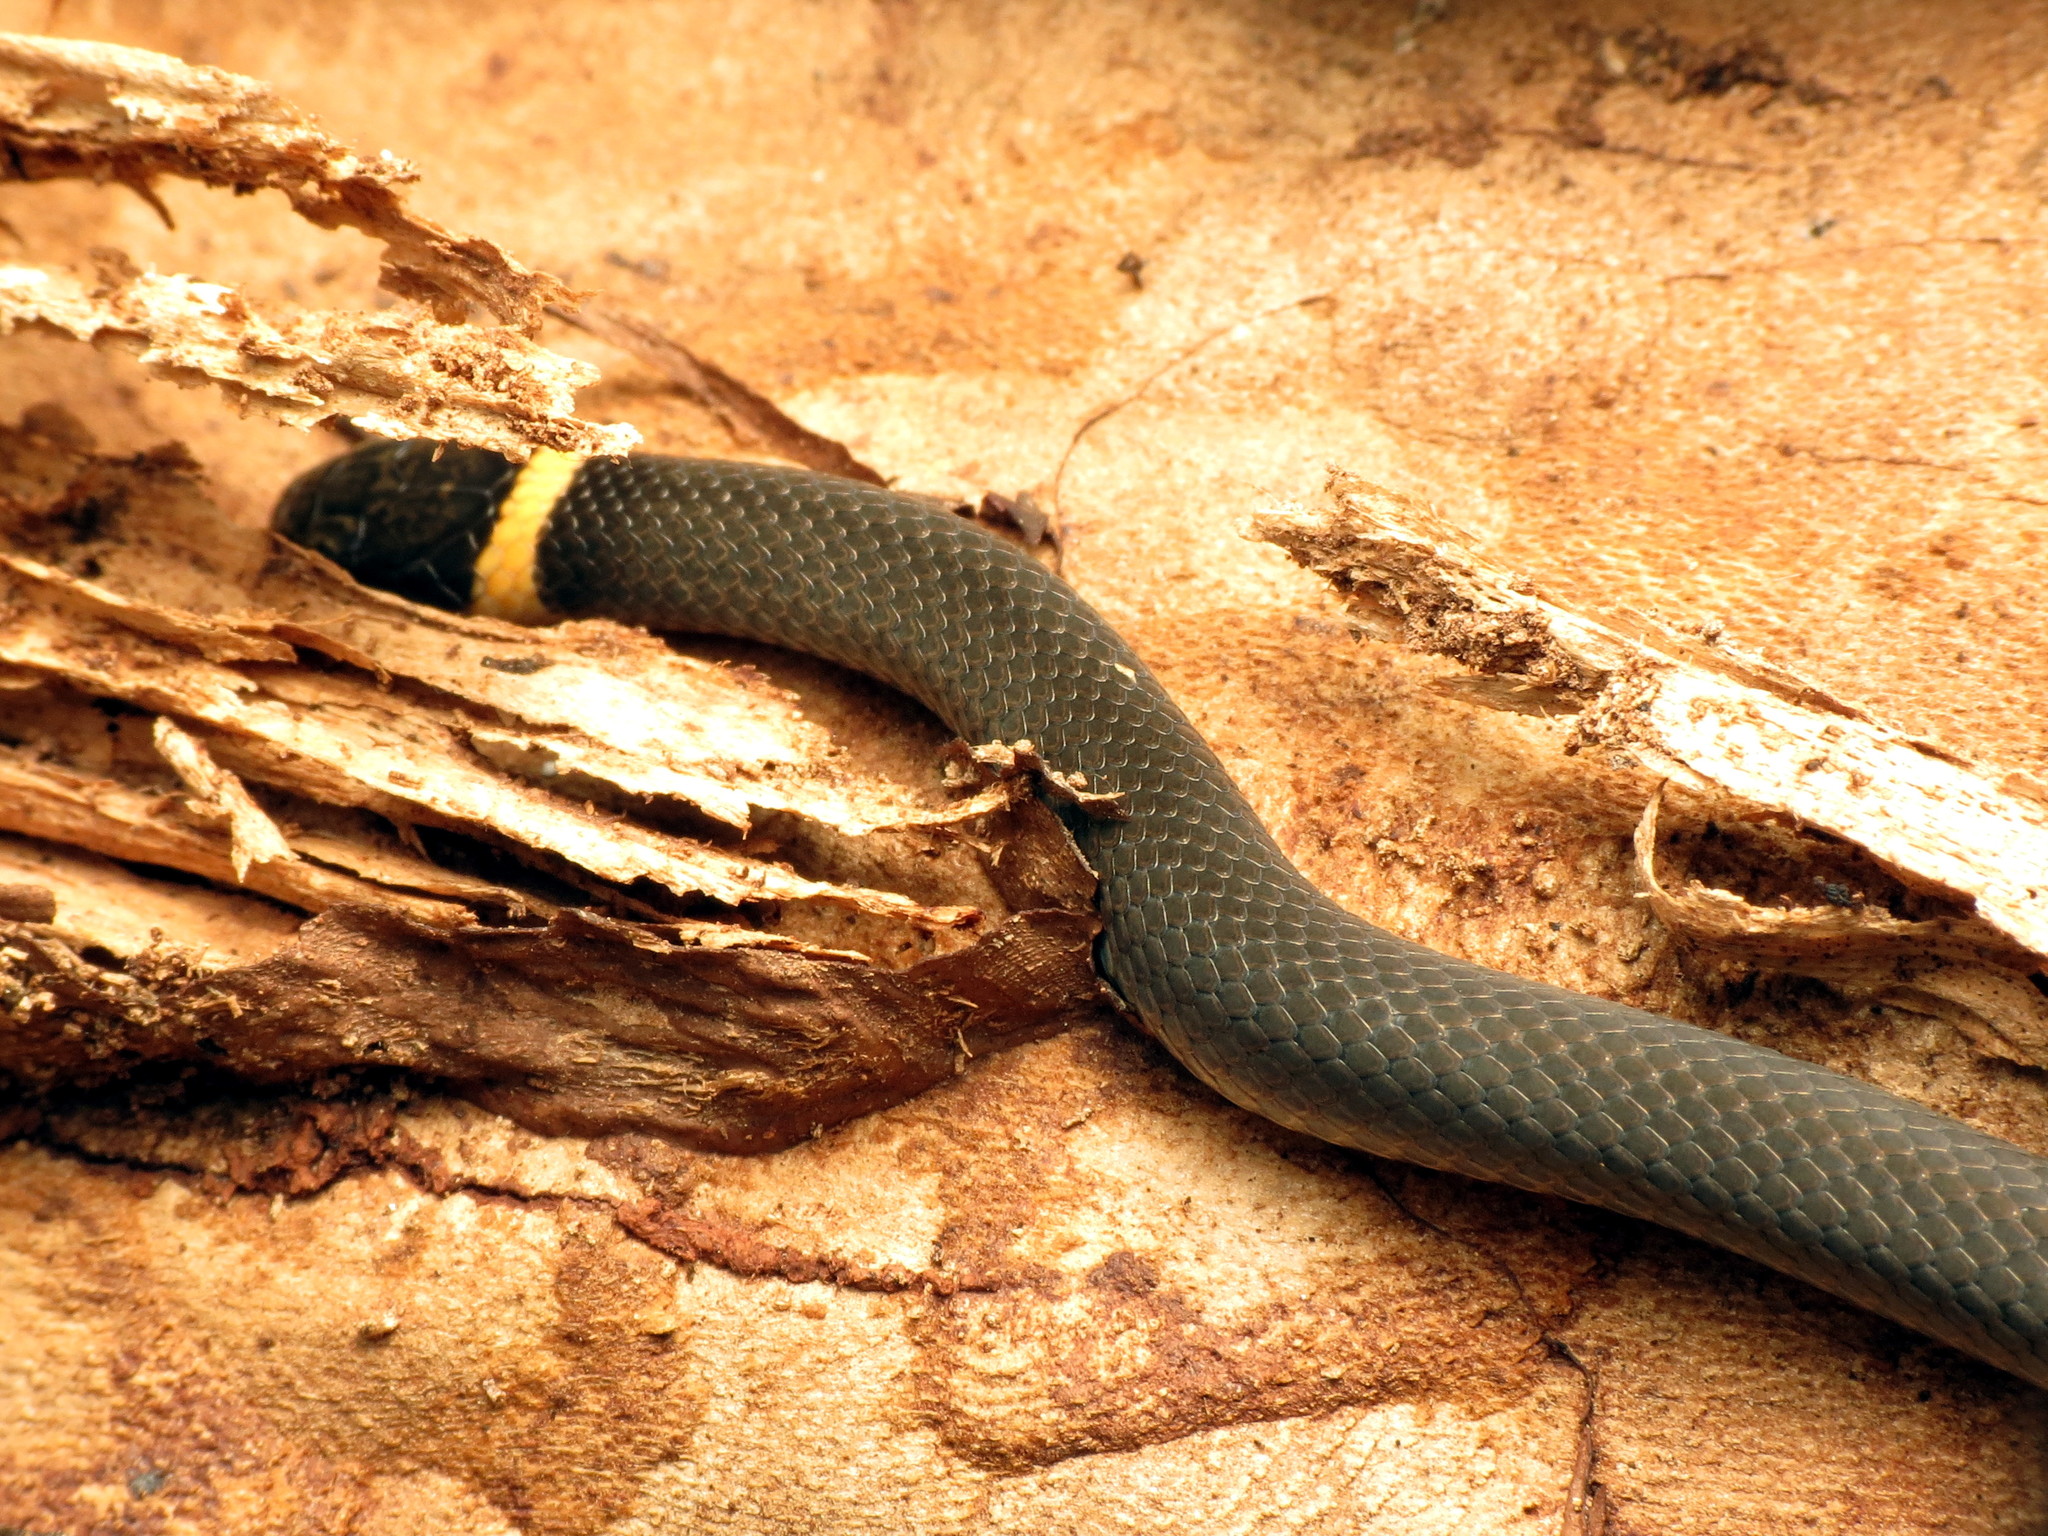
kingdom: Animalia
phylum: Chordata
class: Squamata
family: Colubridae
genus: Diadophis
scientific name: Diadophis punctatus
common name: Ringneck snake
